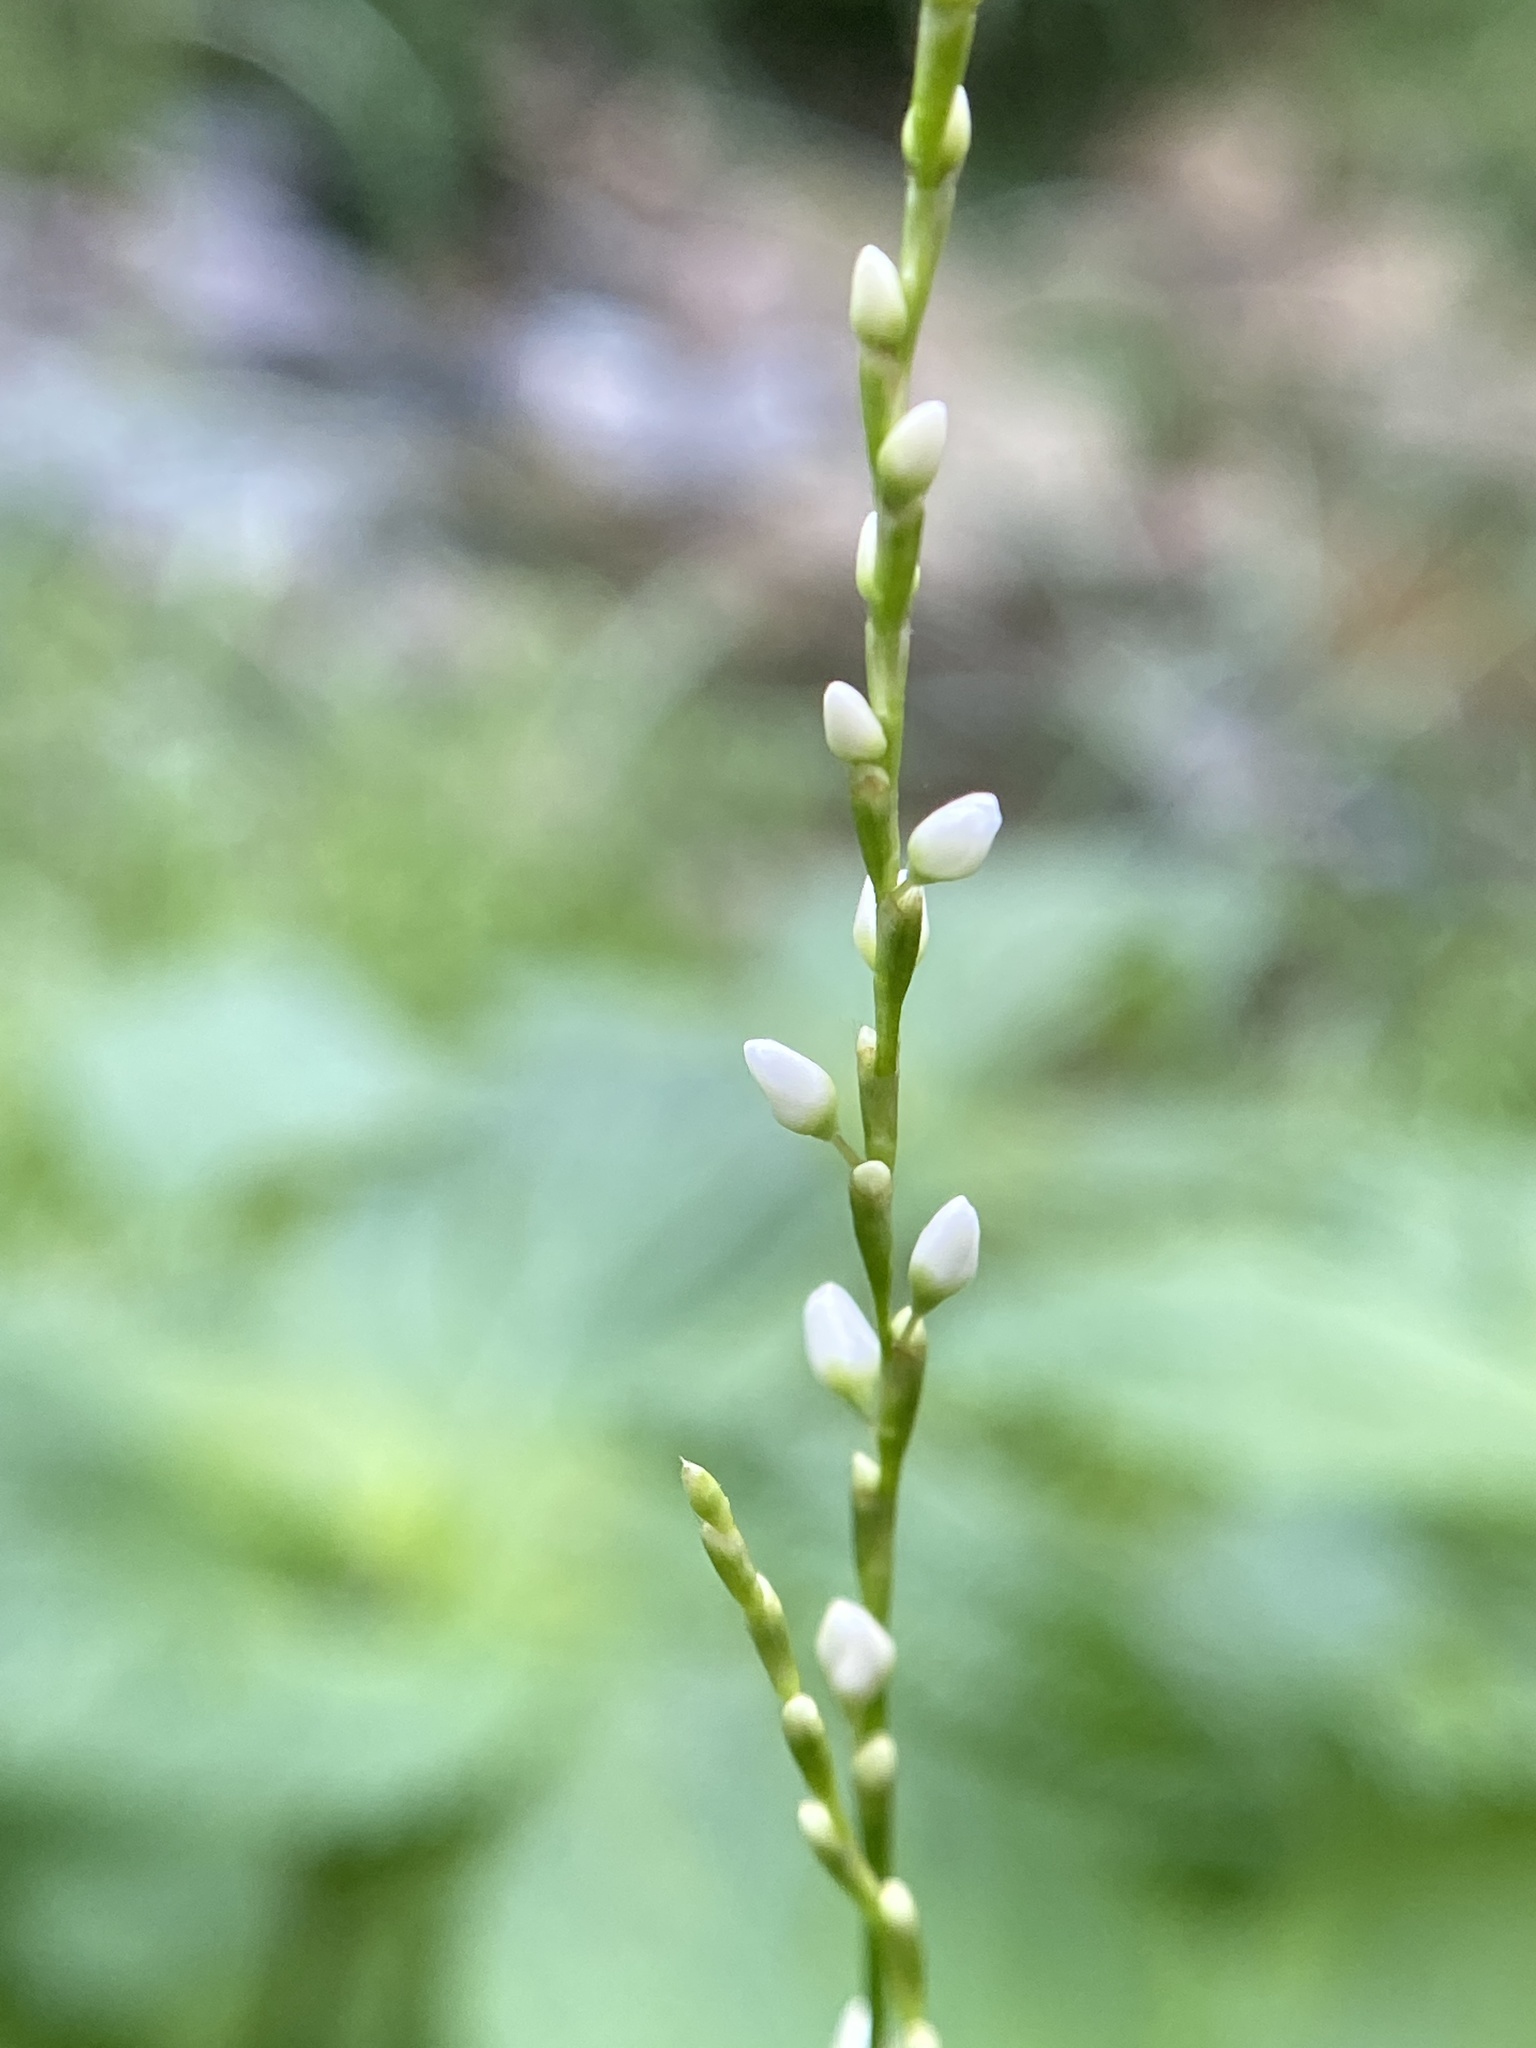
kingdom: Plantae
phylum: Tracheophyta
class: Magnoliopsida
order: Caryophyllales
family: Polygonaceae
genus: Persicaria
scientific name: Persicaria hydropiperoides
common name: Swamp smartweed
